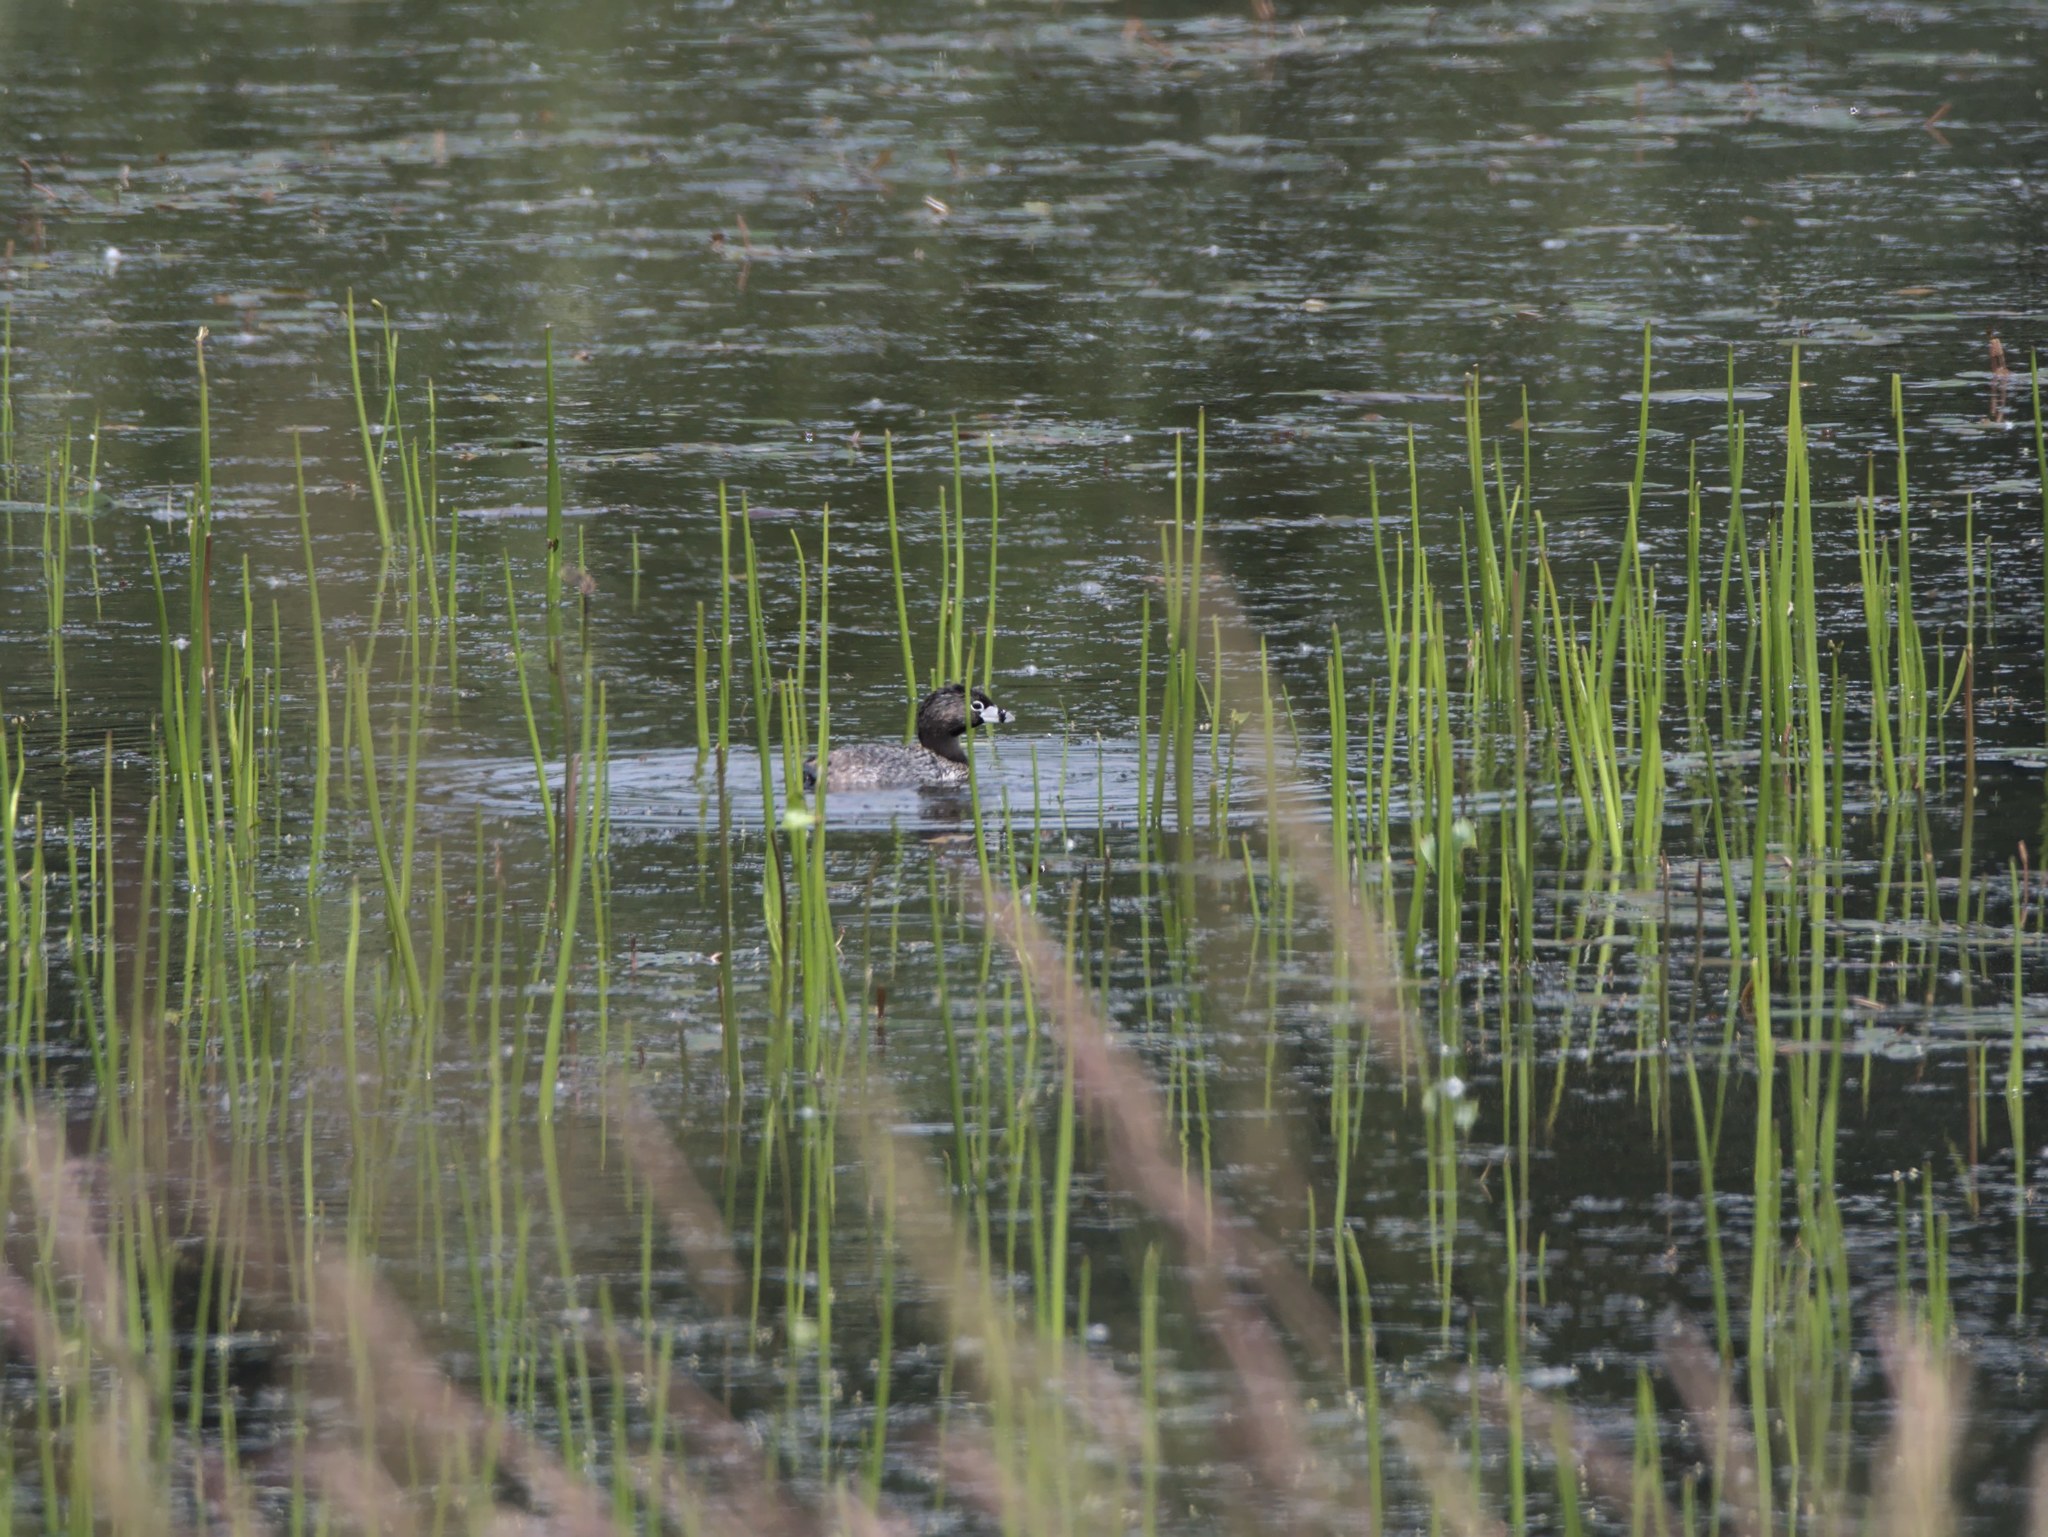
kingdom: Animalia
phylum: Chordata
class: Aves
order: Podicipediformes
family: Podicipedidae
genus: Podilymbus
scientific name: Podilymbus podiceps
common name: Pied-billed grebe
